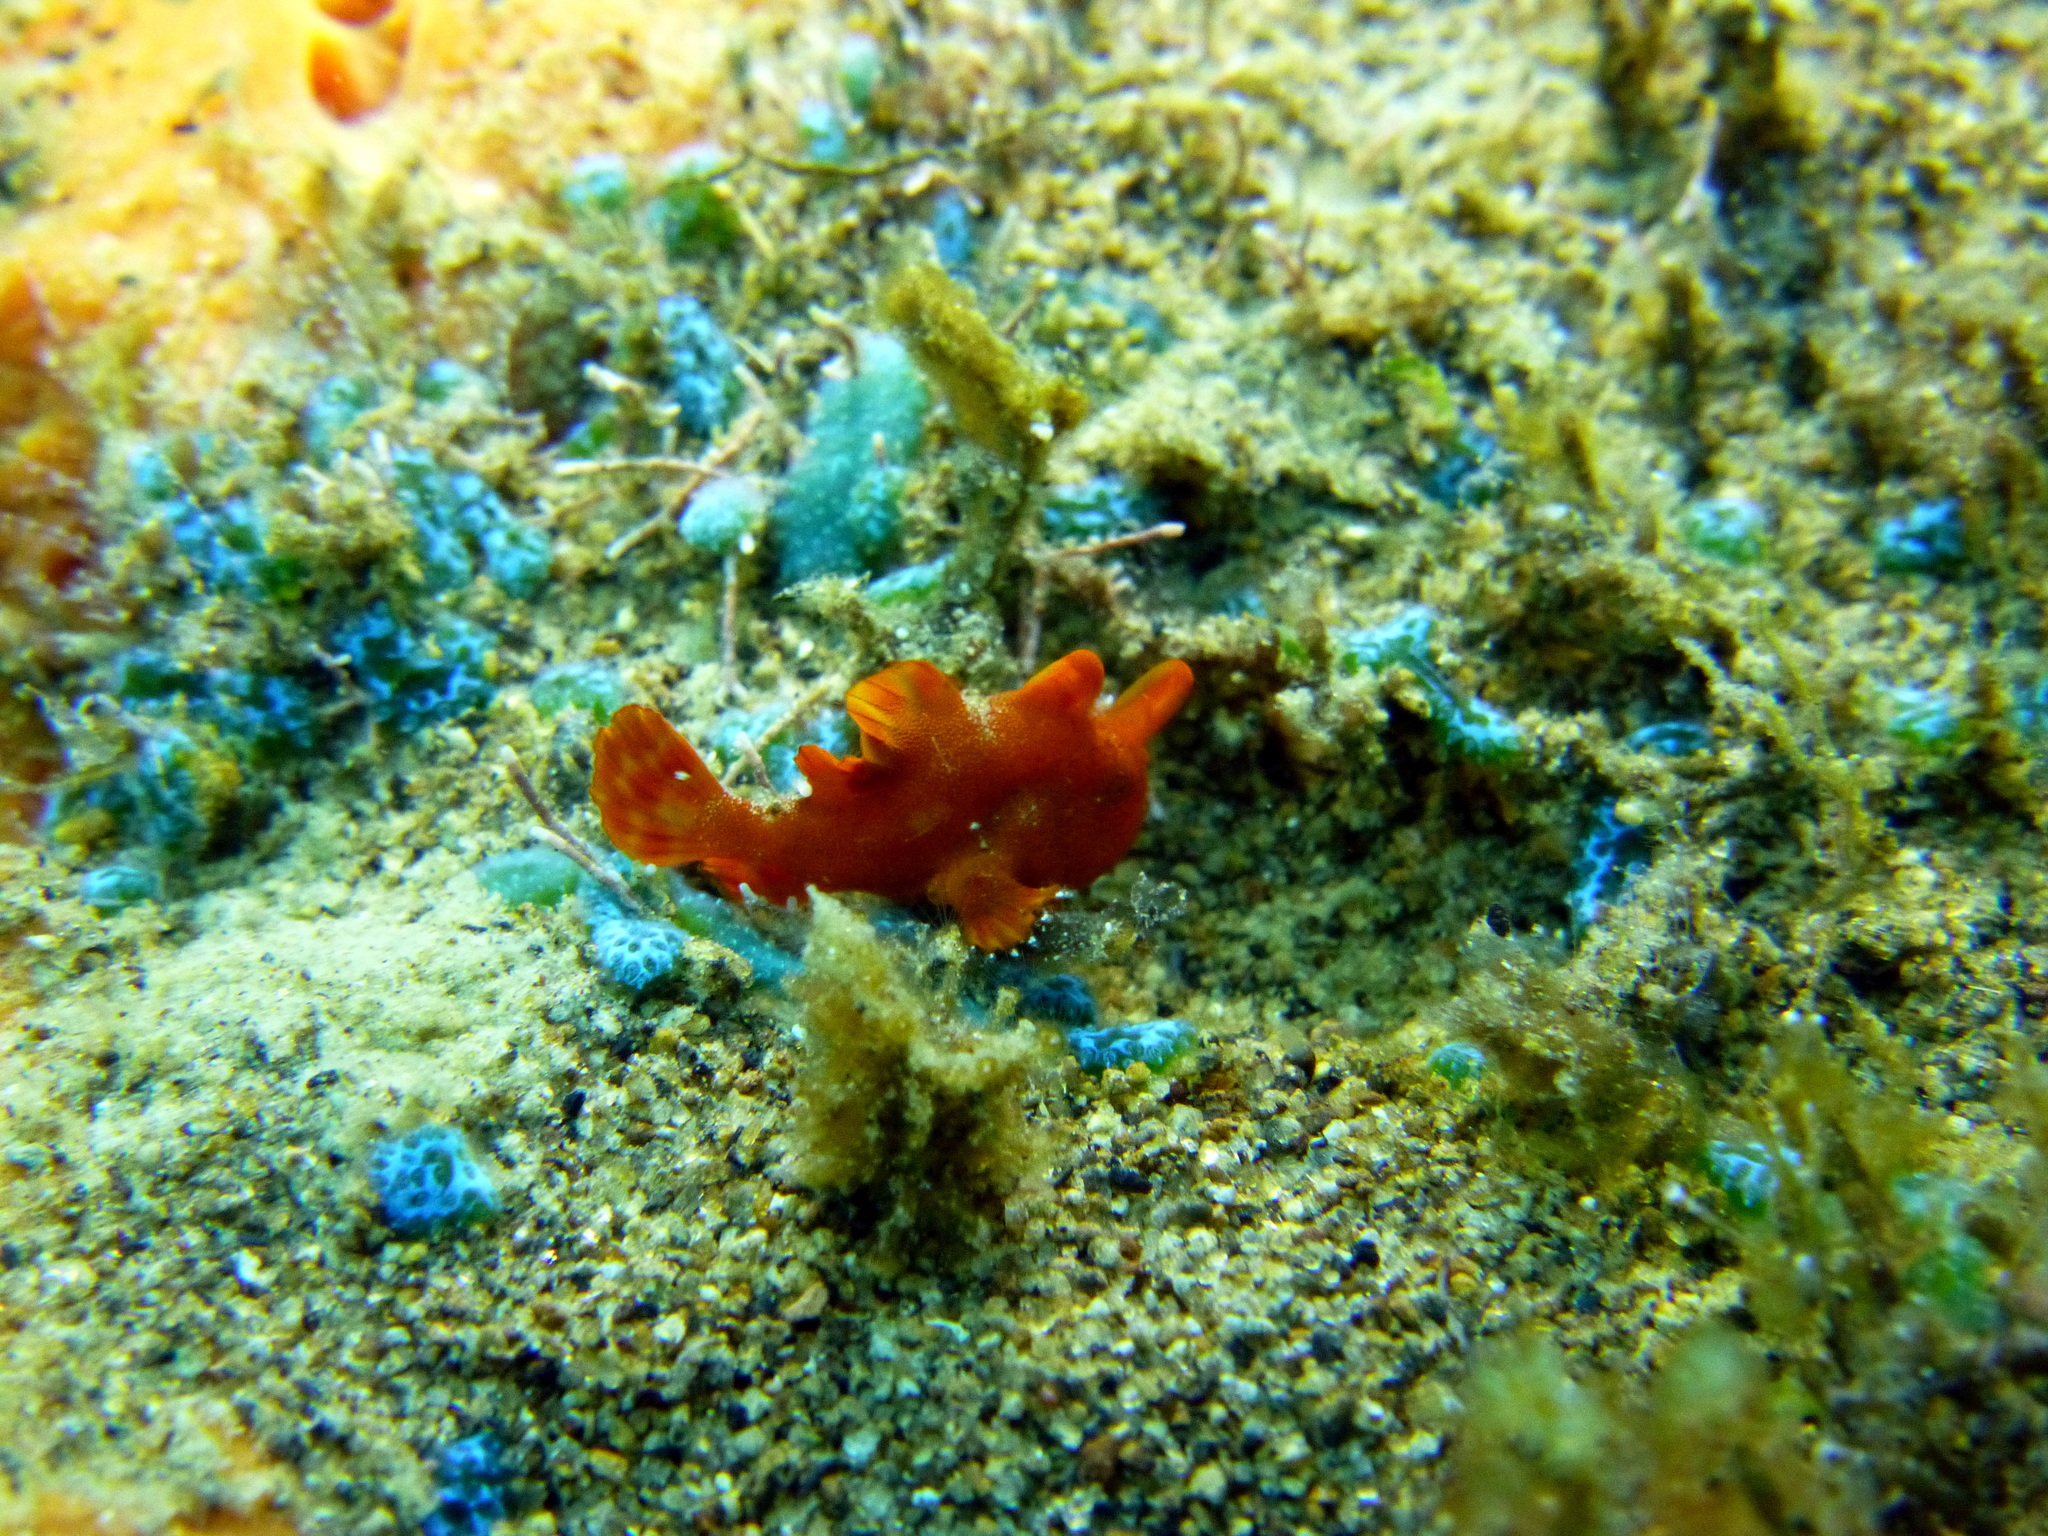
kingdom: Animalia
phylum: Chordata
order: Lophiiformes
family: Antennariidae
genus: Antennarius
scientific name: Antennarius pictus
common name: Painted frogfish
